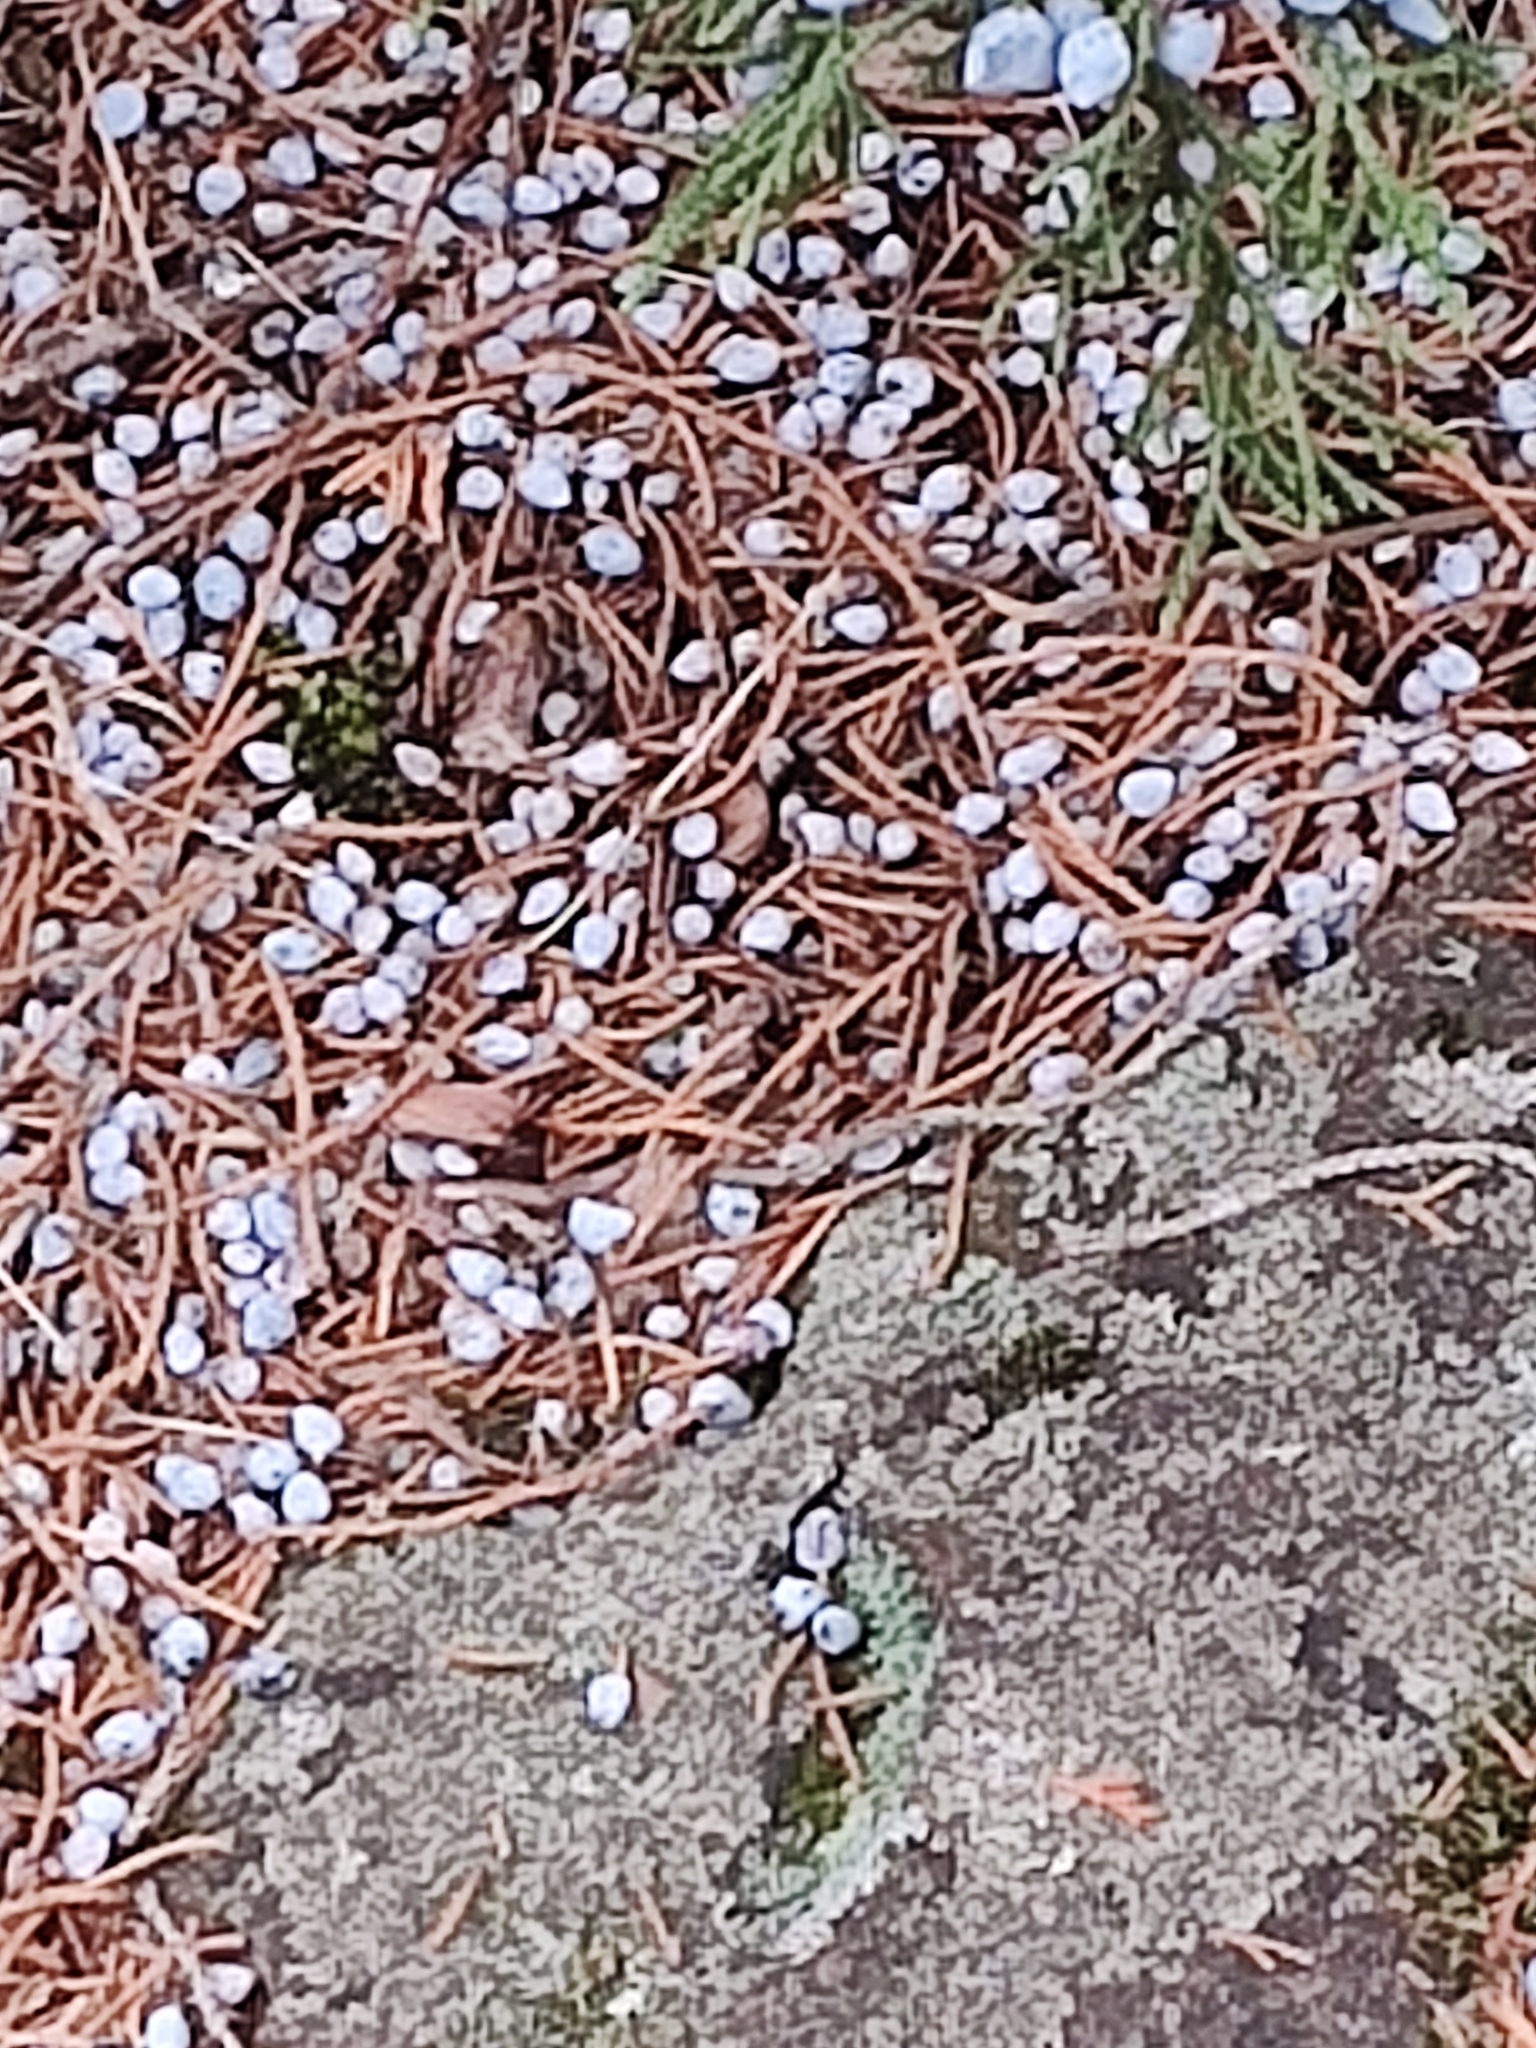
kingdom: Plantae
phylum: Tracheophyta
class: Pinopsida
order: Pinales
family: Cupressaceae
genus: Juniperus
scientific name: Juniperus virginiana
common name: Red juniper
